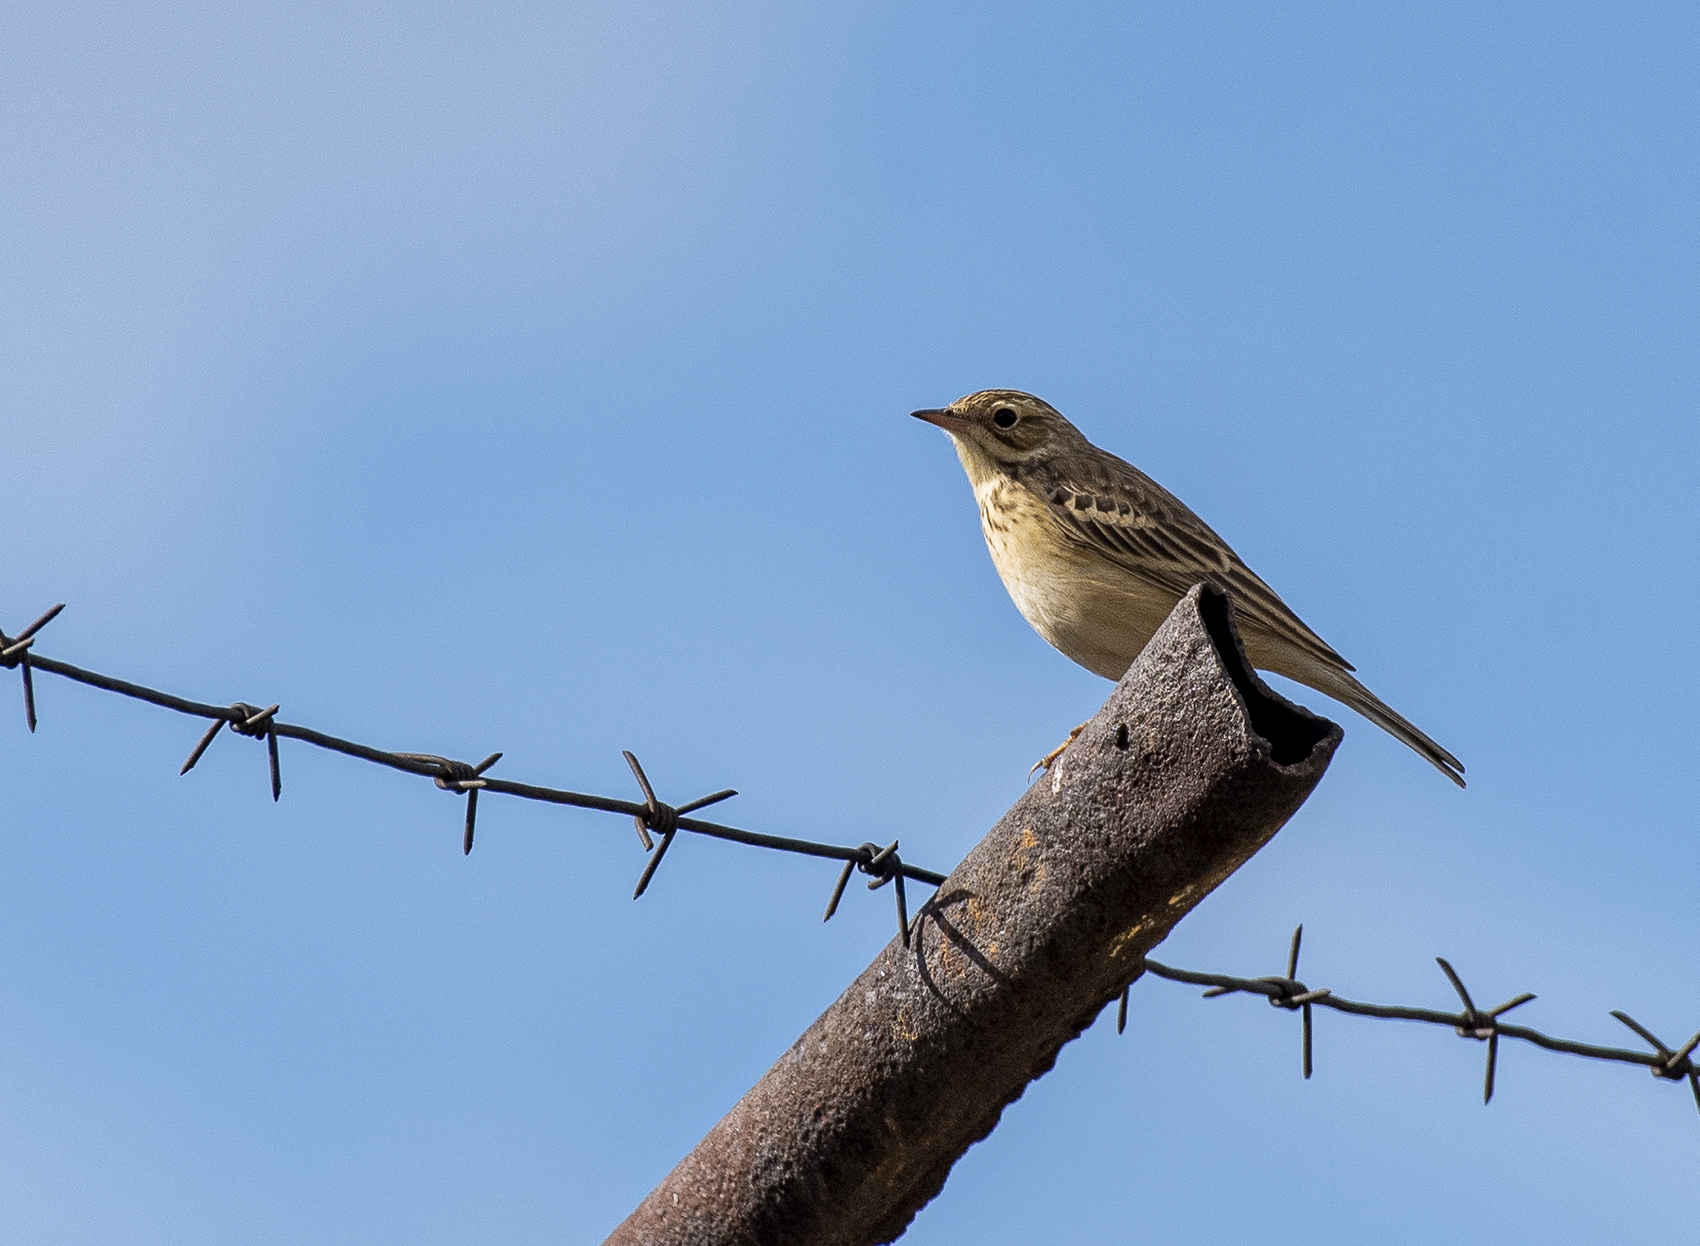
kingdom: Animalia
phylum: Chordata
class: Aves
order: Passeriformes
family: Motacillidae
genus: Anthus
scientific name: Anthus godlewskii
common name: Blyth's pipit
